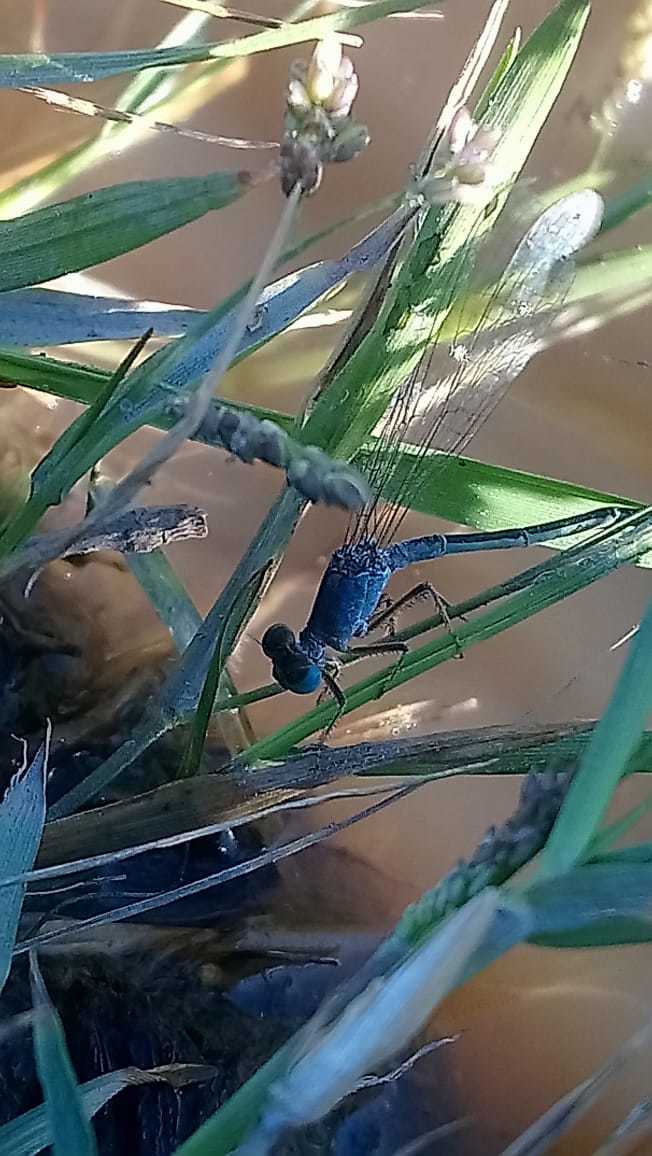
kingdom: Animalia
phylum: Arthropoda
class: Insecta
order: Odonata
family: Coenagrionidae
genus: Ischnura
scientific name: Ischnura fluviatilis
